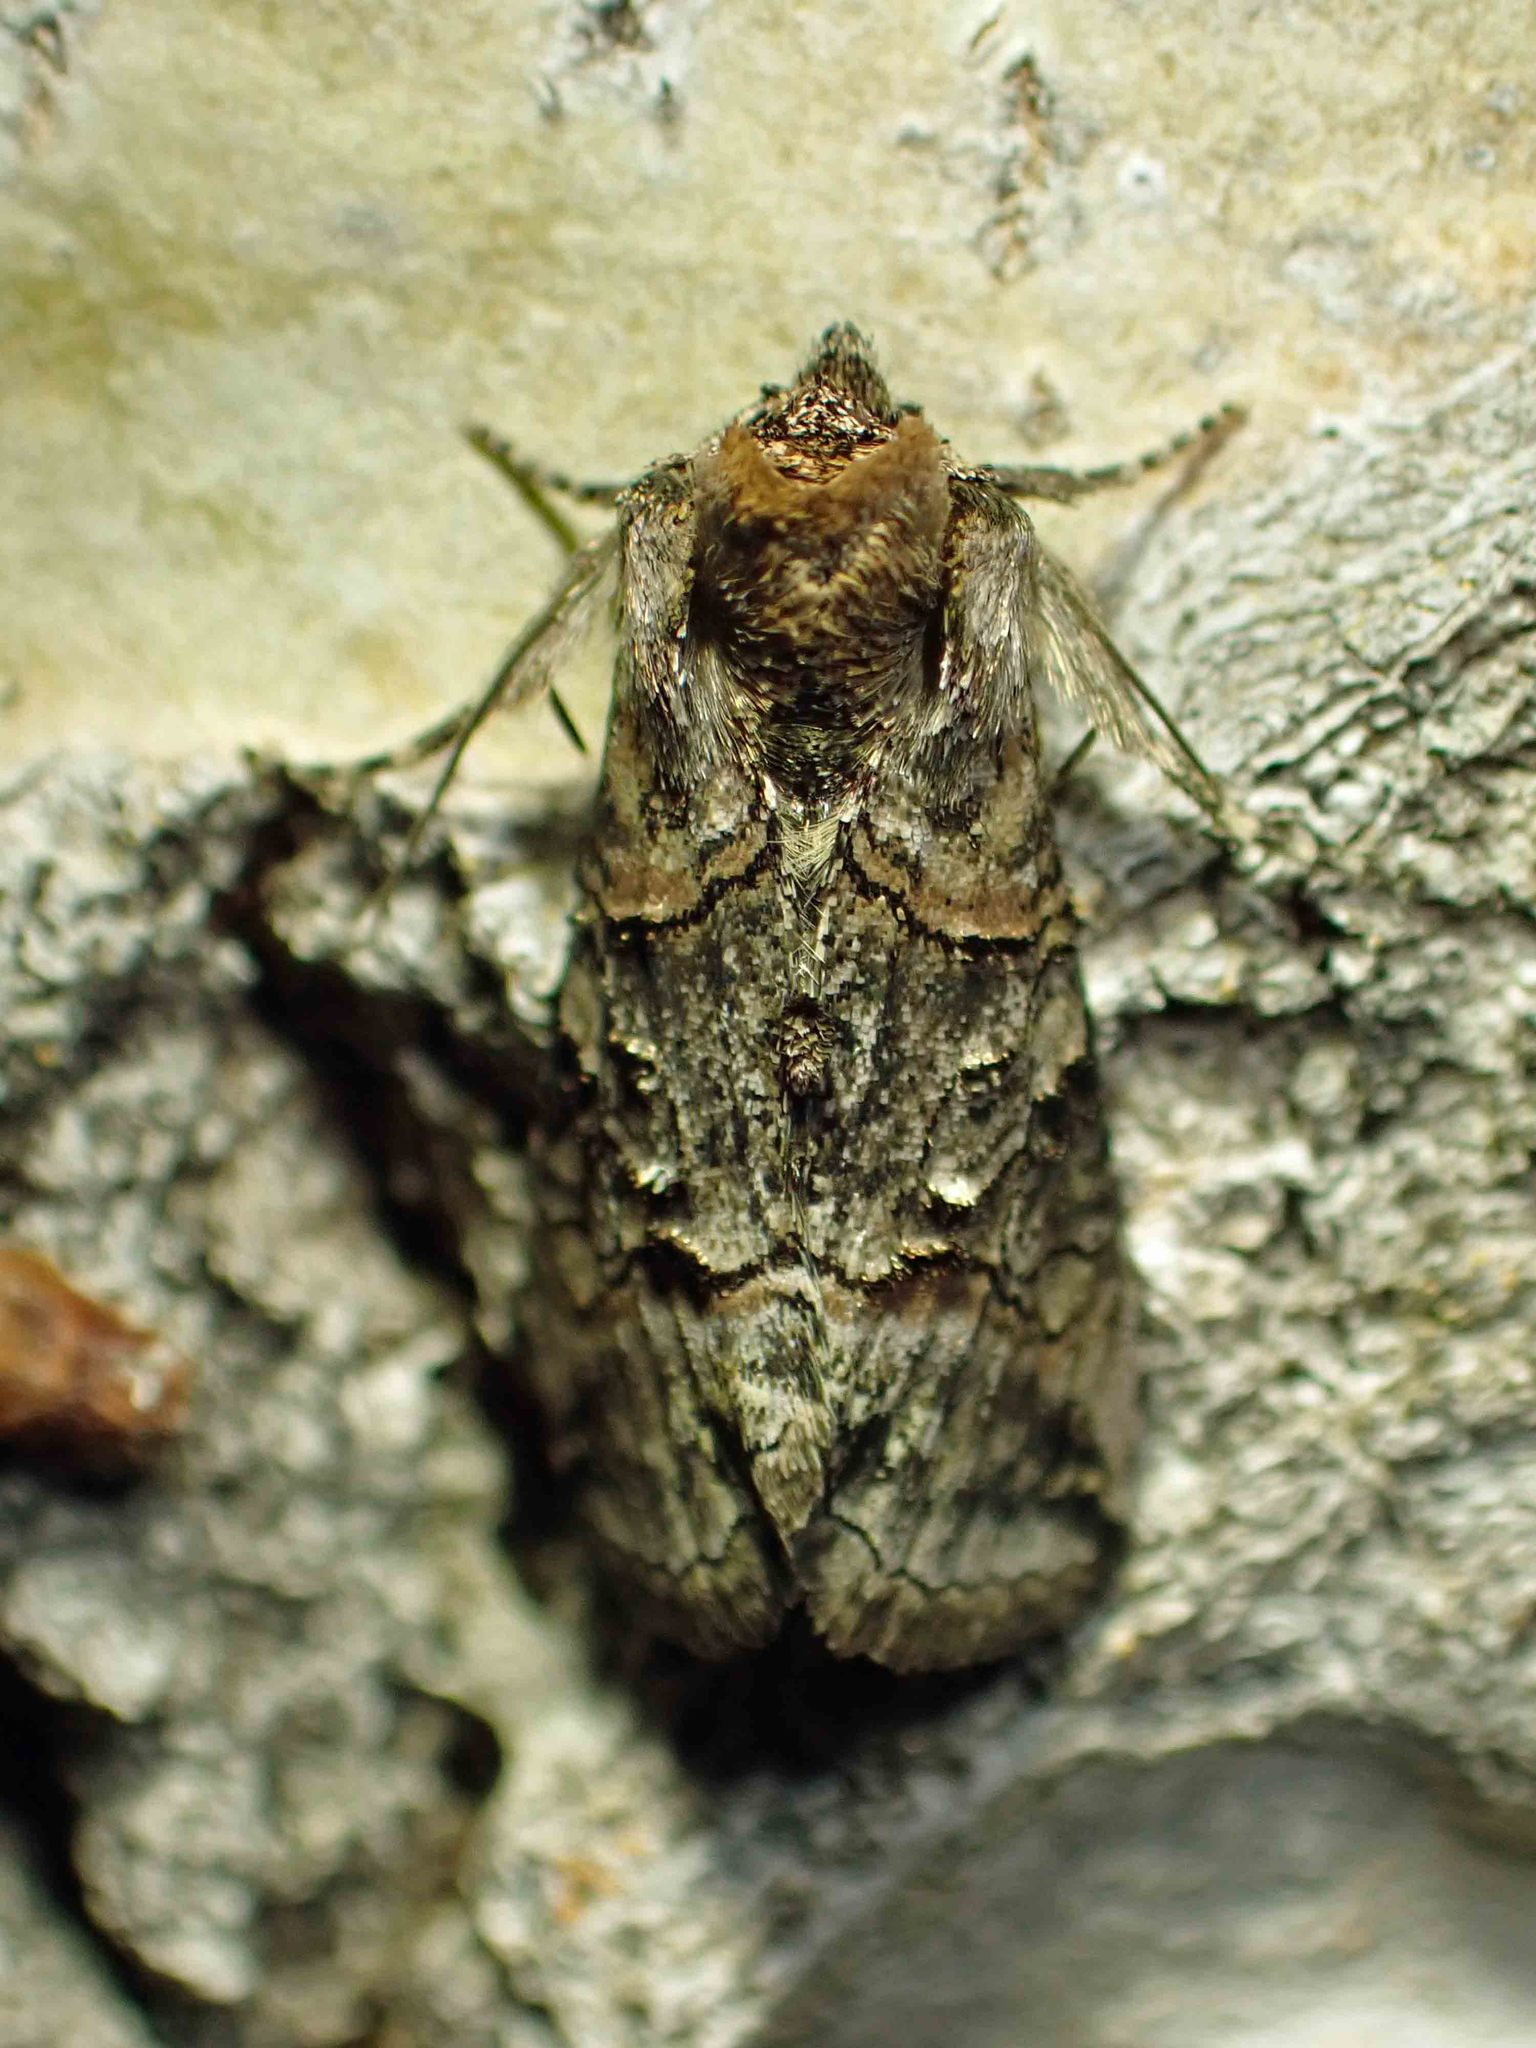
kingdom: Animalia
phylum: Arthropoda
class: Insecta
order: Lepidoptera
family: Noctuidae
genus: Abrostola
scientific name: Abrostola urentis
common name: Spectacled nettle moth
